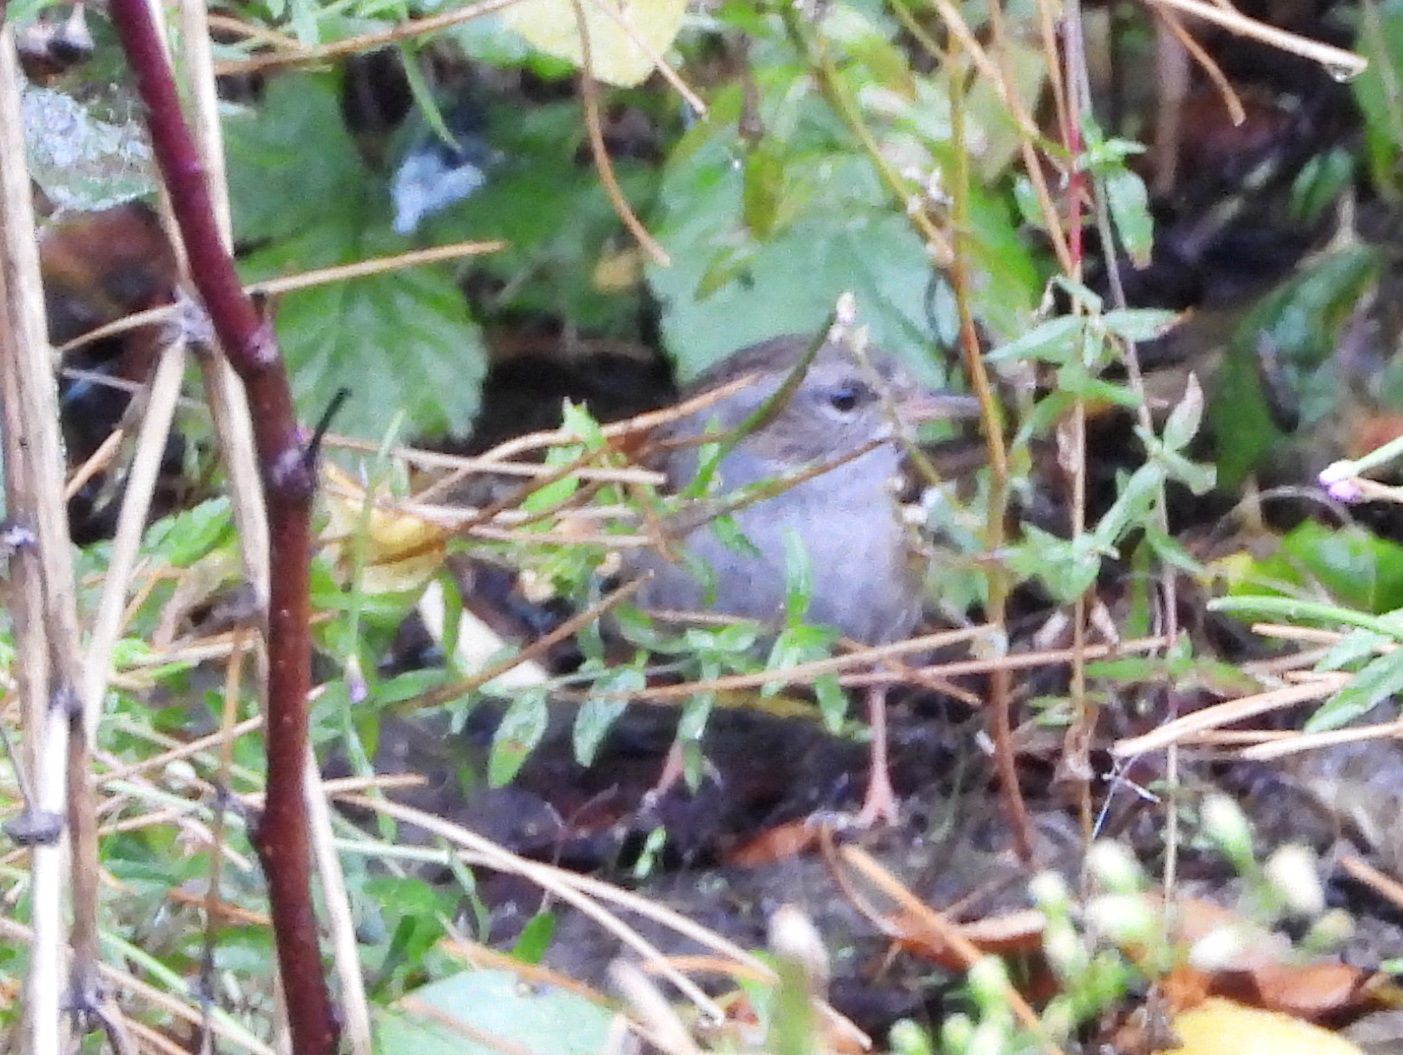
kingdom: Animalia
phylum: Chordata
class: Aves
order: Passeriformes
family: Prunellidae
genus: Prunella
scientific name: Prunella modularis
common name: Dunnock
